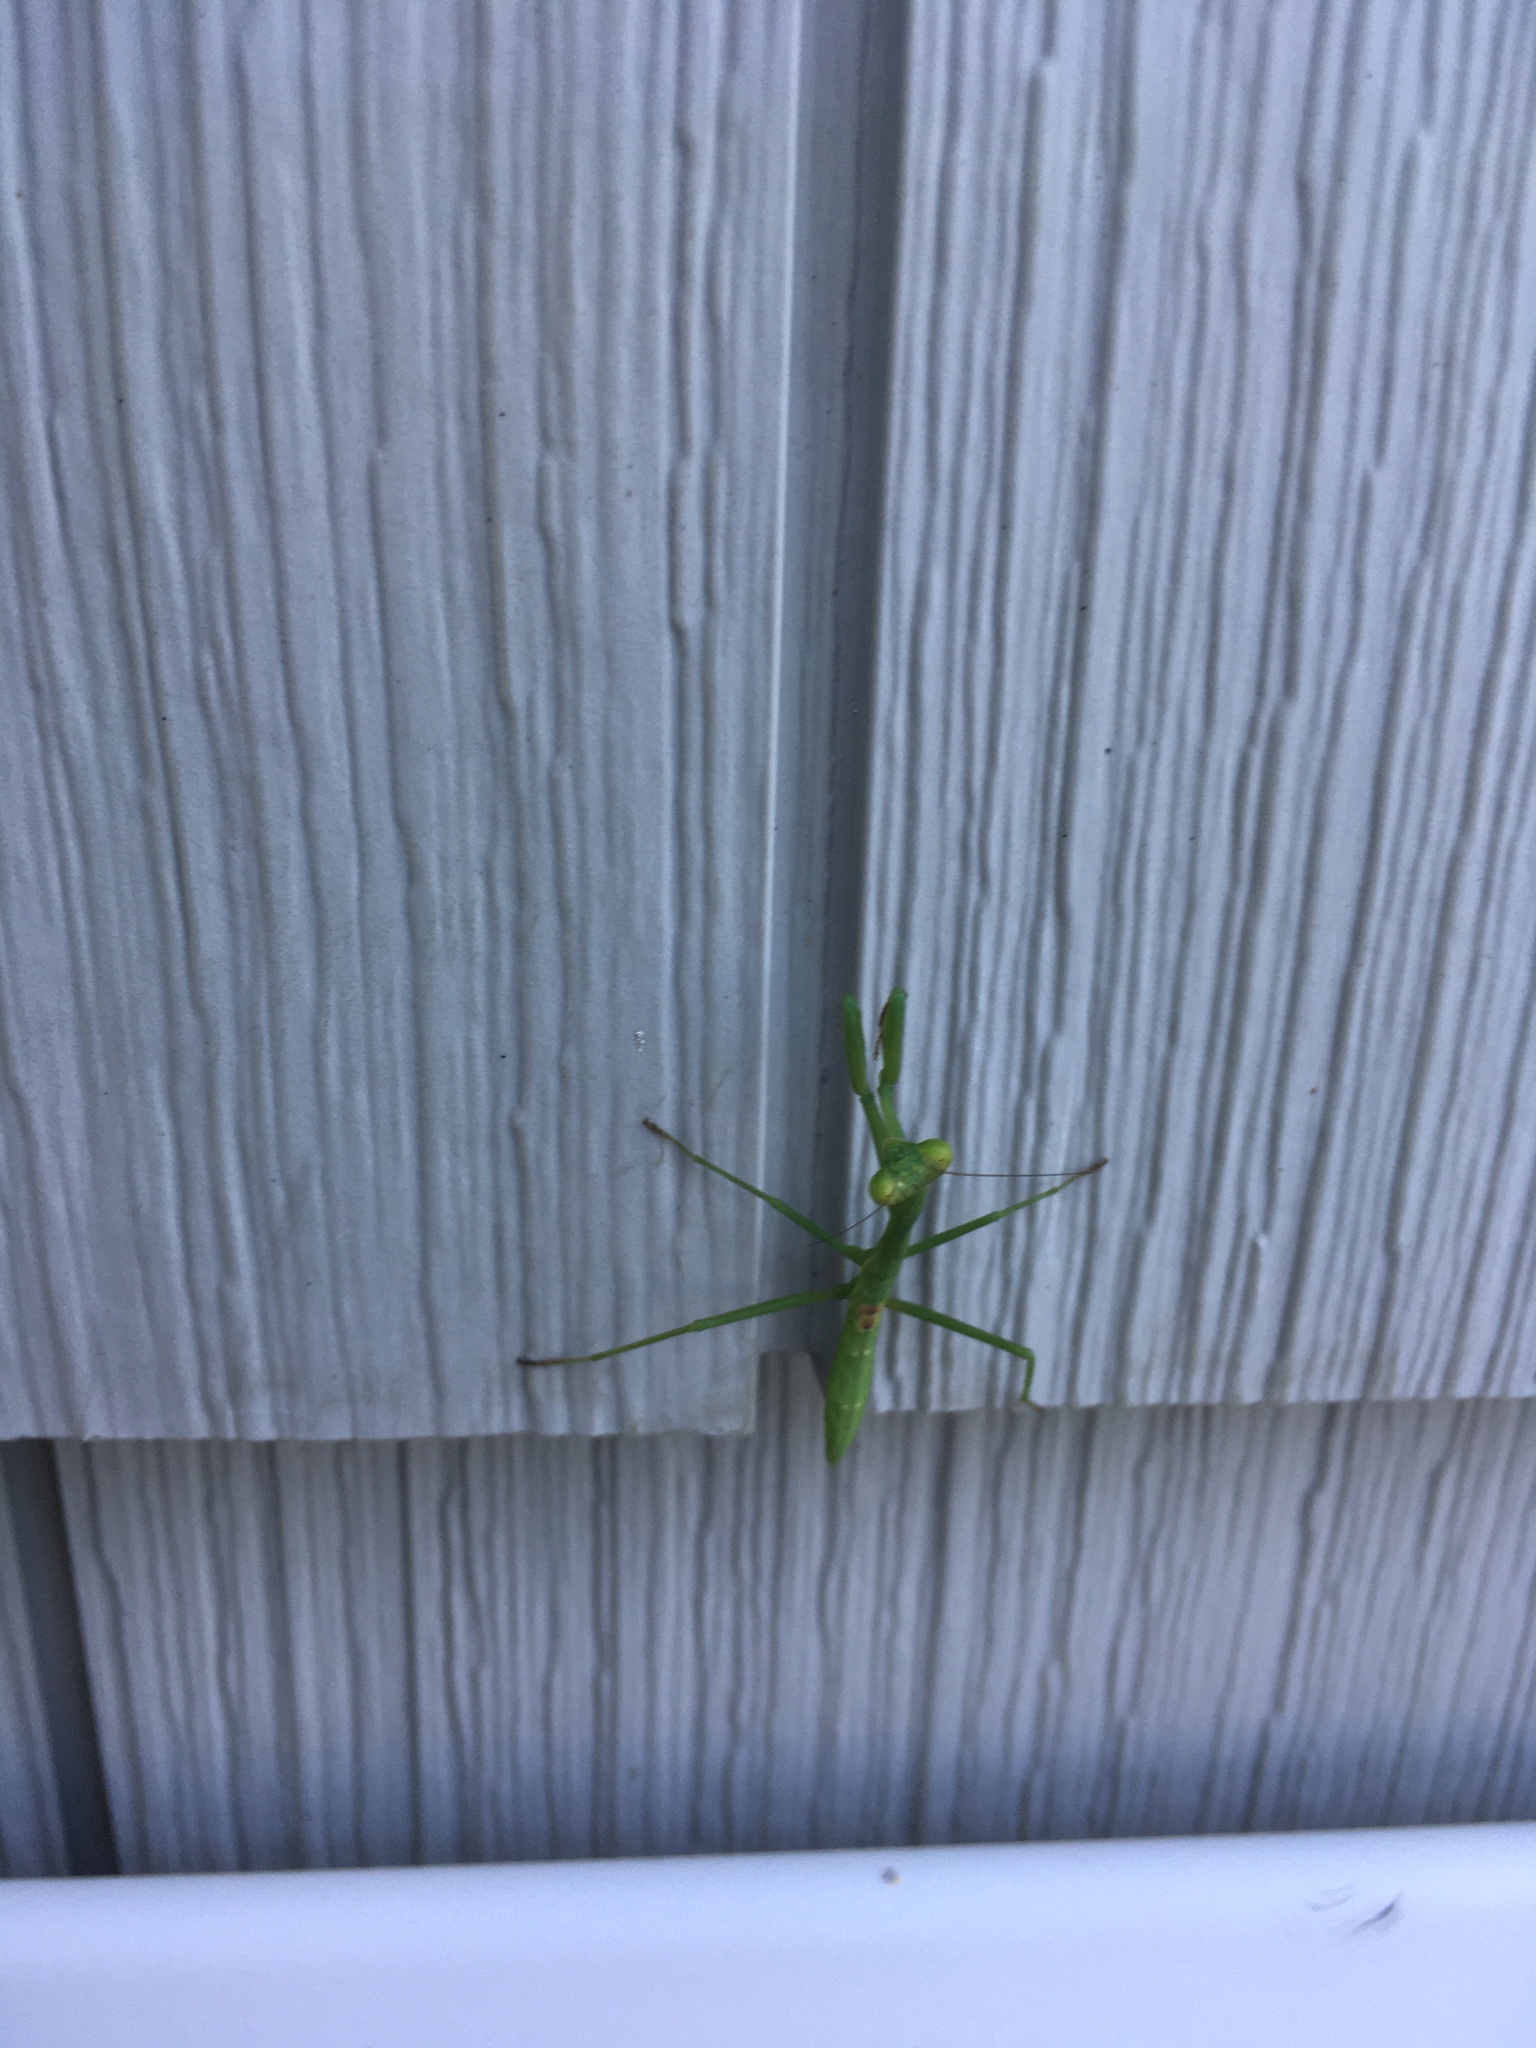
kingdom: Animalia
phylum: Arthropoda
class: Insecta
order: Mantodea
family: Mantidae
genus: Stagmomantis
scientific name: Stagmomantis carolina
